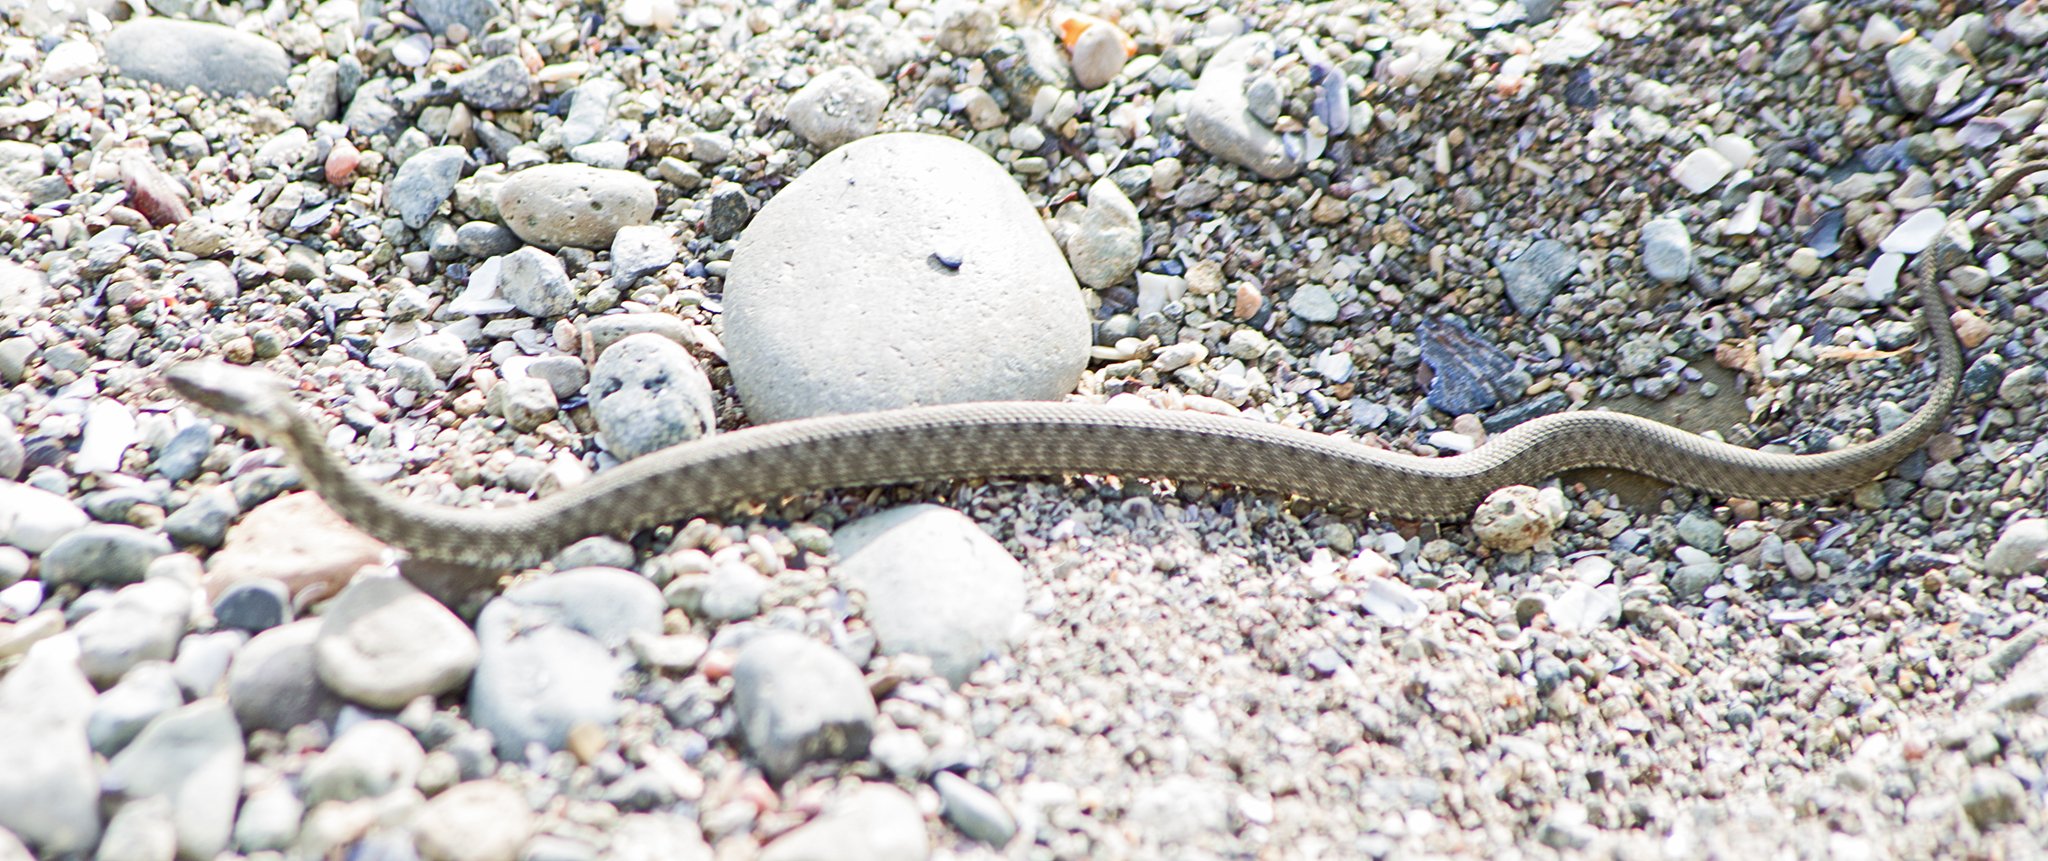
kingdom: Animalia
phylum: Chordata
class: Squamata
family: Colubridae
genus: Natrix
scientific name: Natrix tessellata
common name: Dice snake
